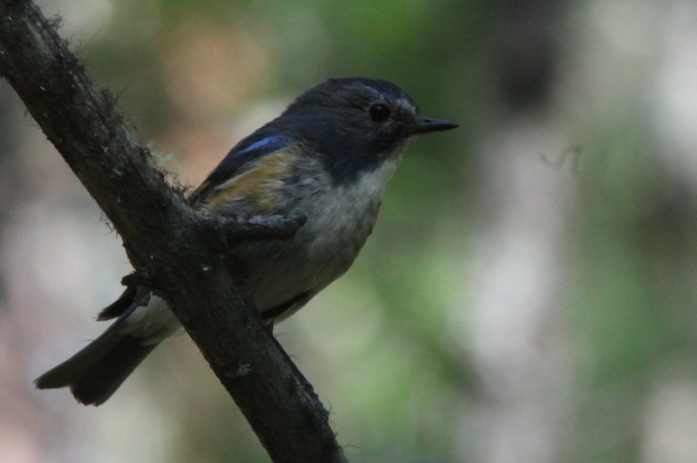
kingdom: Animalia
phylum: Chordata
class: Aves
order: Passeriformes
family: Muscicapidae
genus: Tarsiger
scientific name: Tarsiger cyanurus
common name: Red-flanked bluetail
